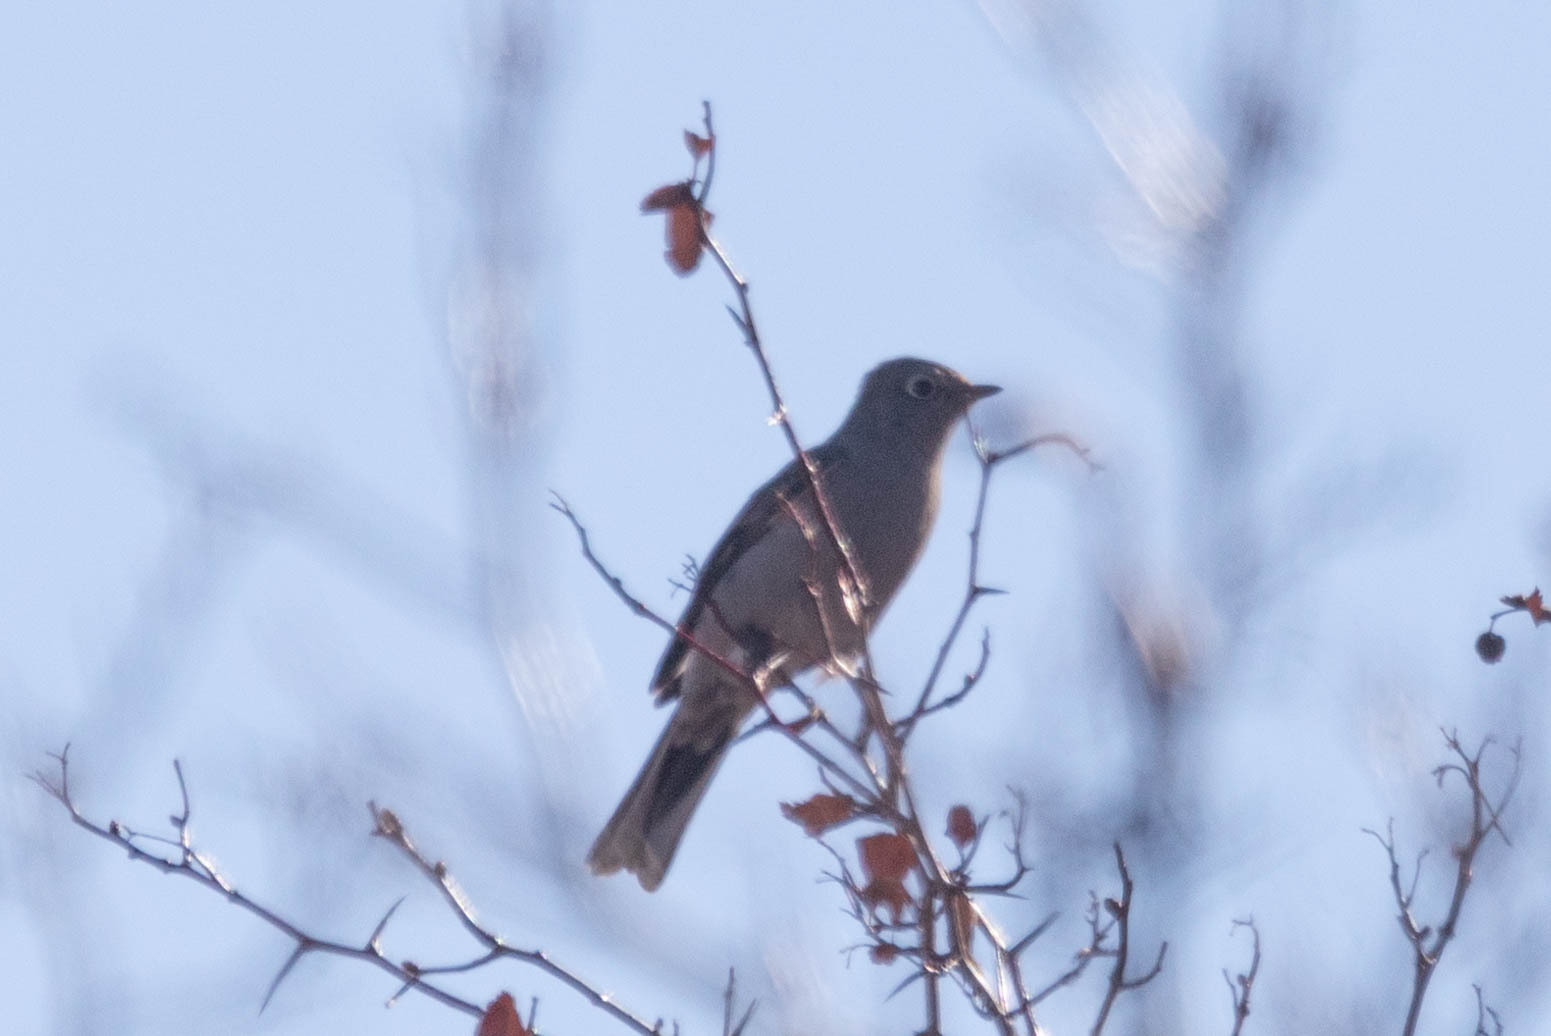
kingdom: Animalia
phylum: Chordata
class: Aves
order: Passeriformes
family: Turdidae
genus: Myadestes
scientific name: Myadestes townsendi
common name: Townsend's solitaire
